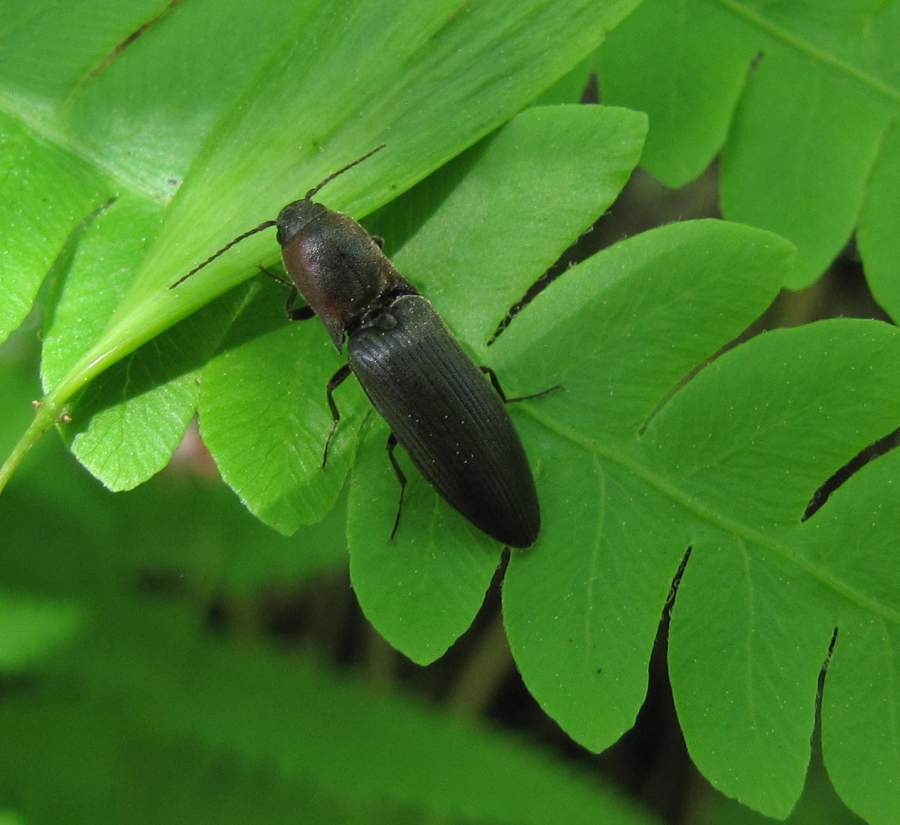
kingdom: Animalia
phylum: Arthropoda
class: Insecta
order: Coleoptera
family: Elateridae
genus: Agriotes
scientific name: Agriotes fucosus
